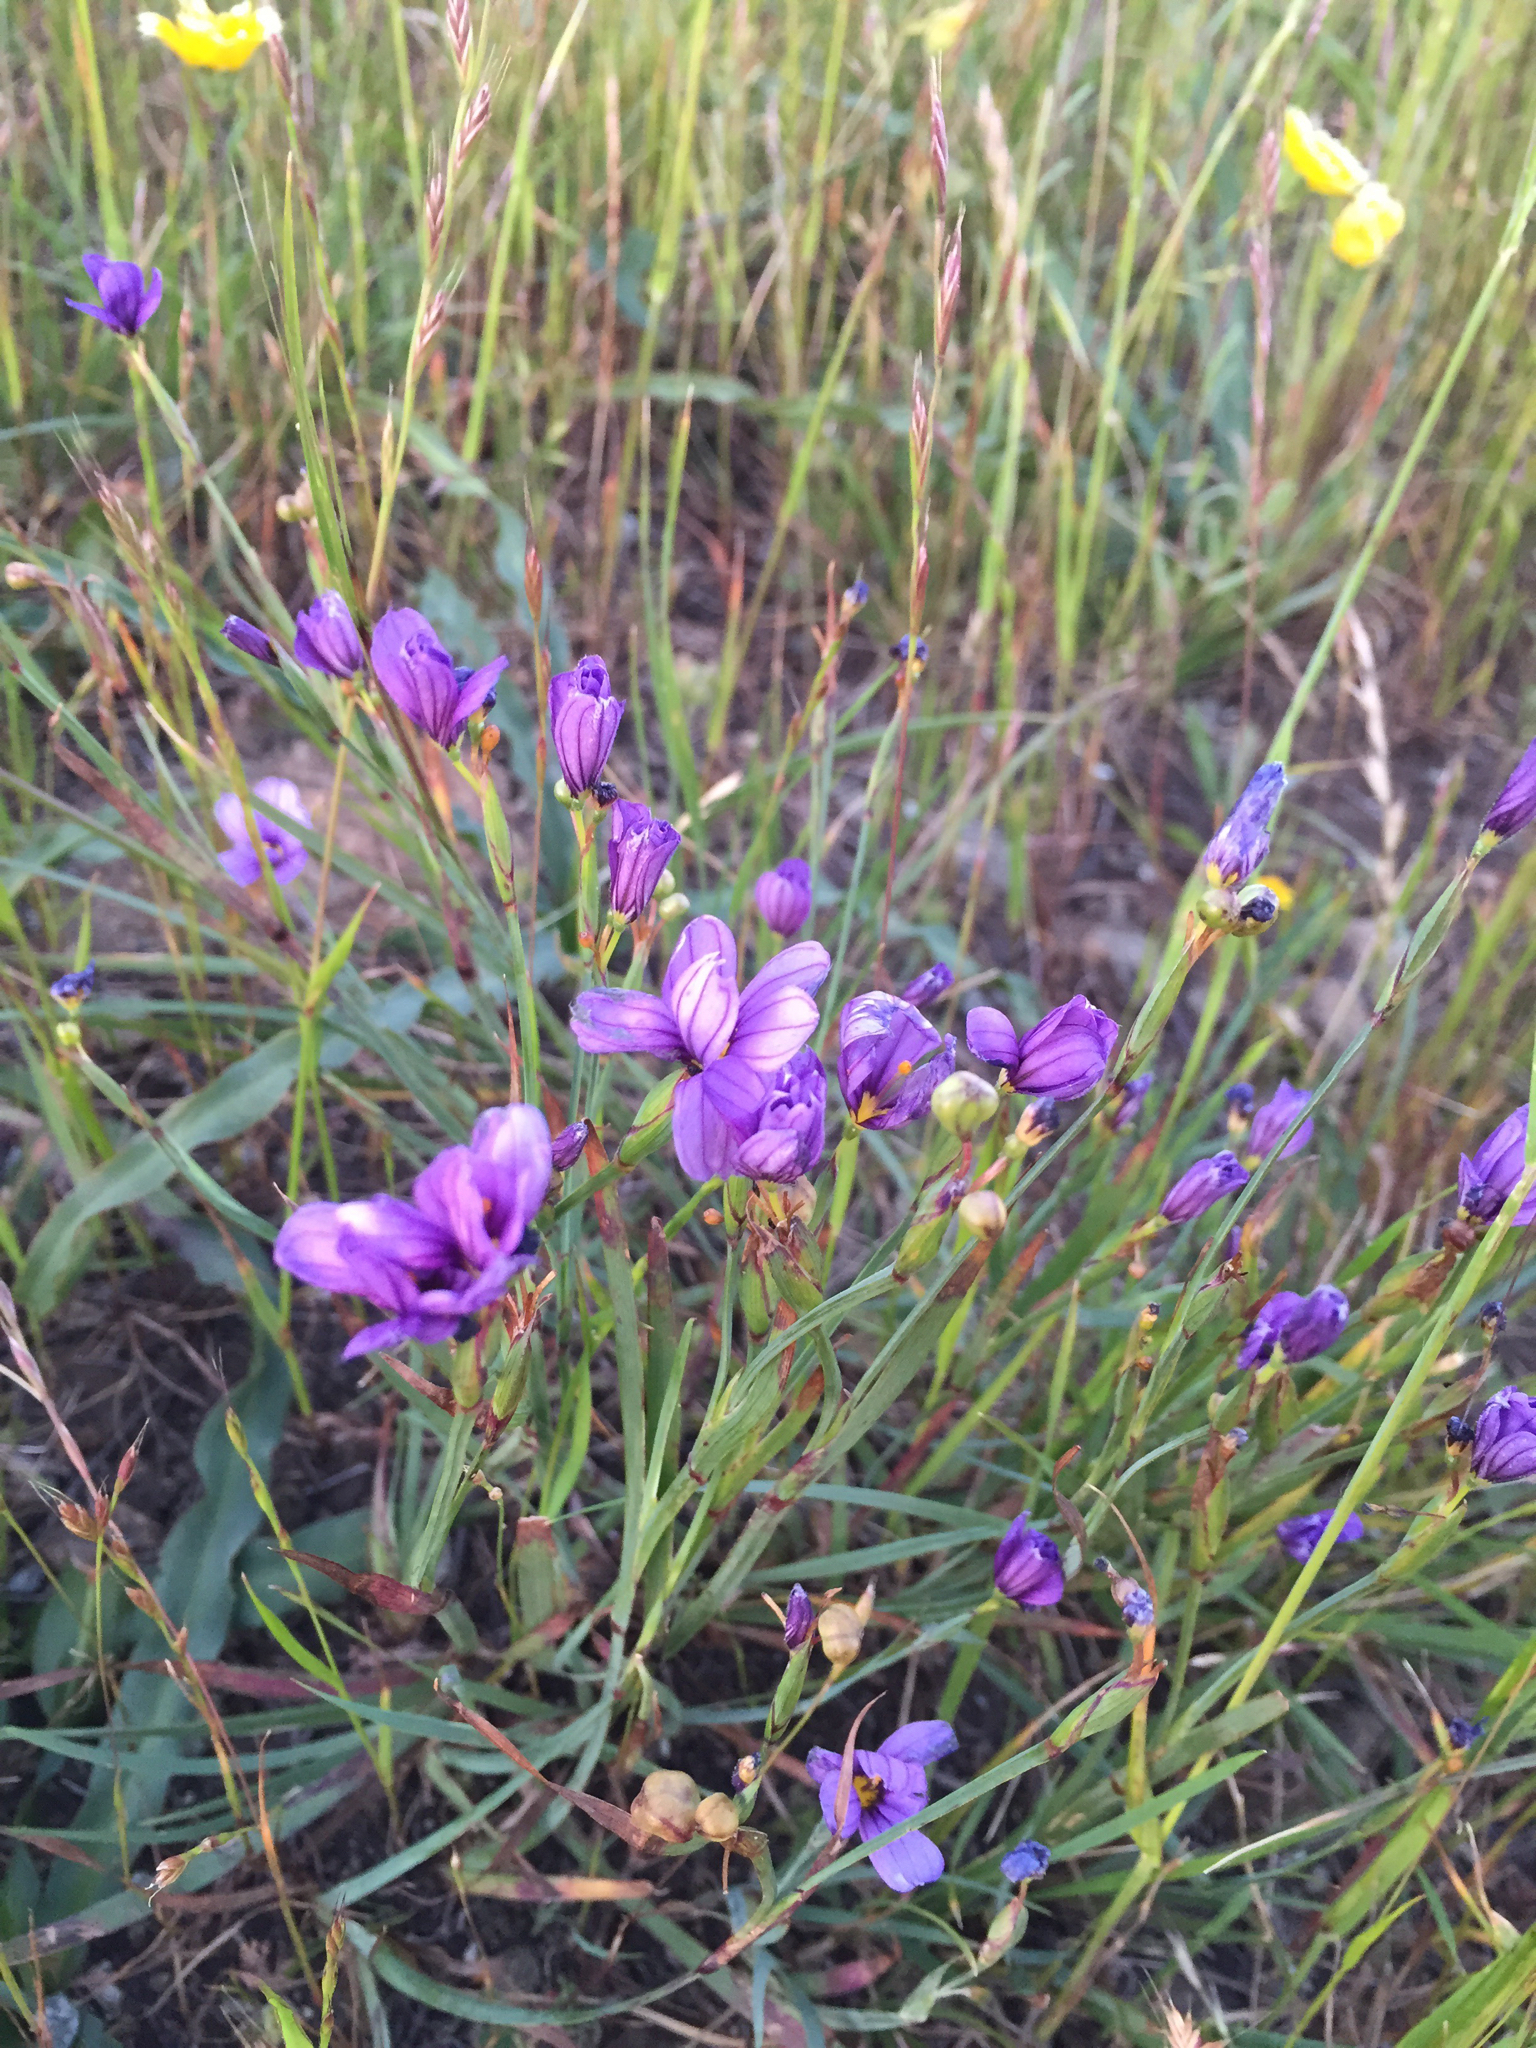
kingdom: Plantae
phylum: Tracheophyta
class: Liliopsida
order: Asparagales
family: Iridaceae
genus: Sisyrinchium
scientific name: Sisyrinchium bellum
